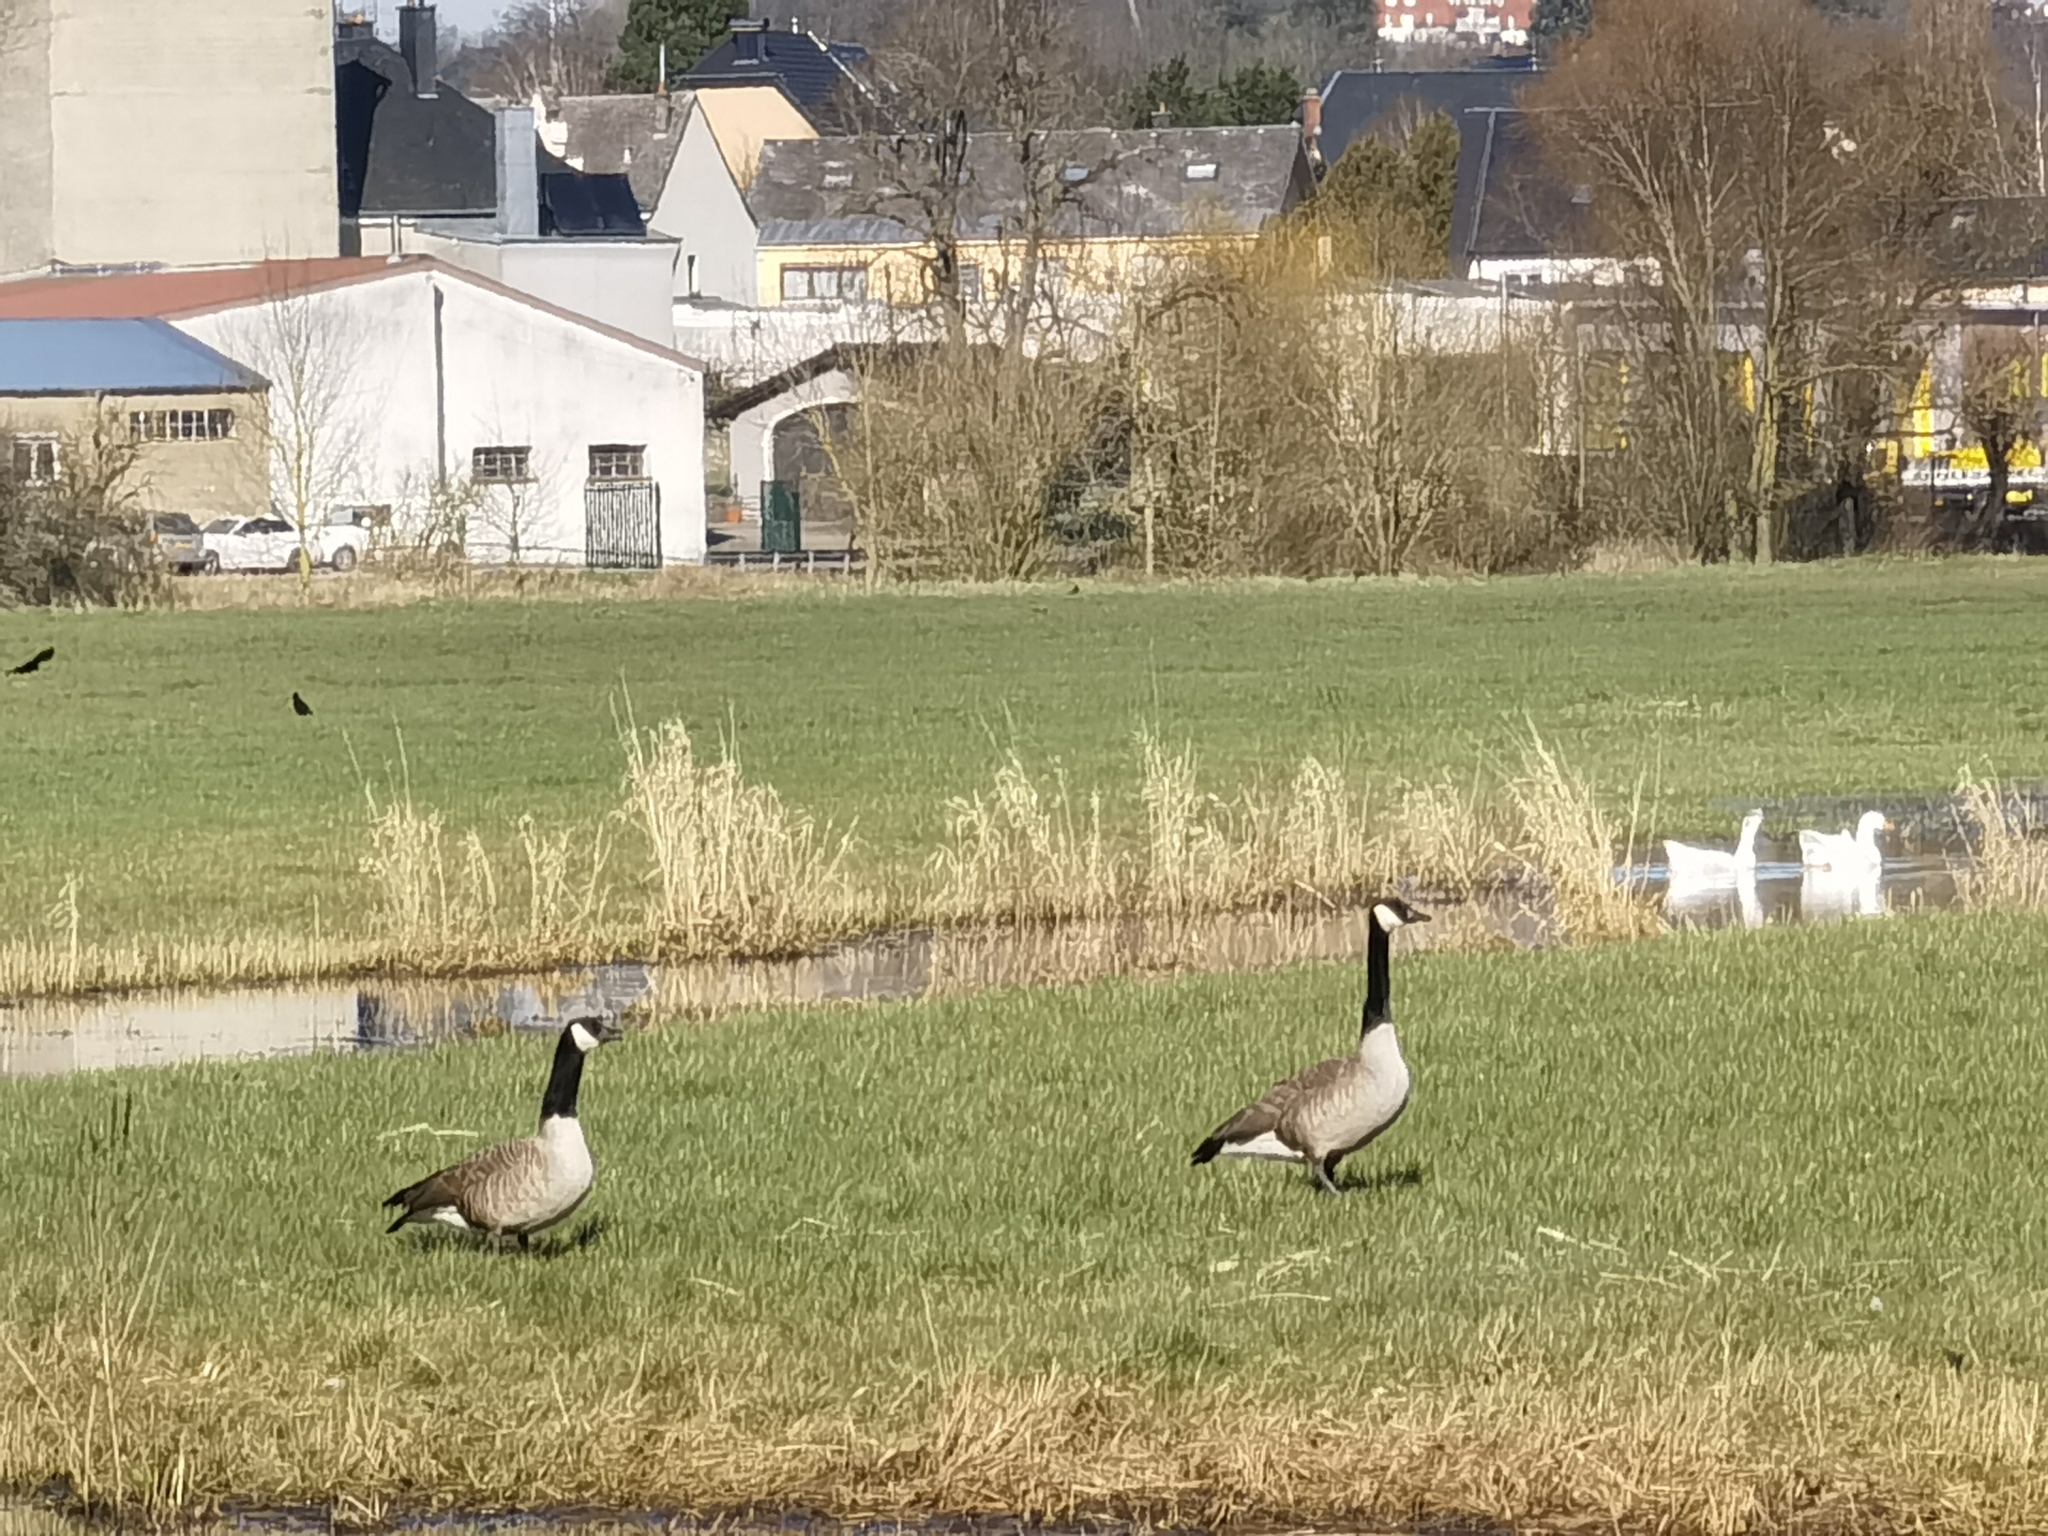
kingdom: Animalia
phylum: Chordata
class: Aves
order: Anseriformes
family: Anatidae
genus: Branta
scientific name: Branta canadensis
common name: Canada goose
